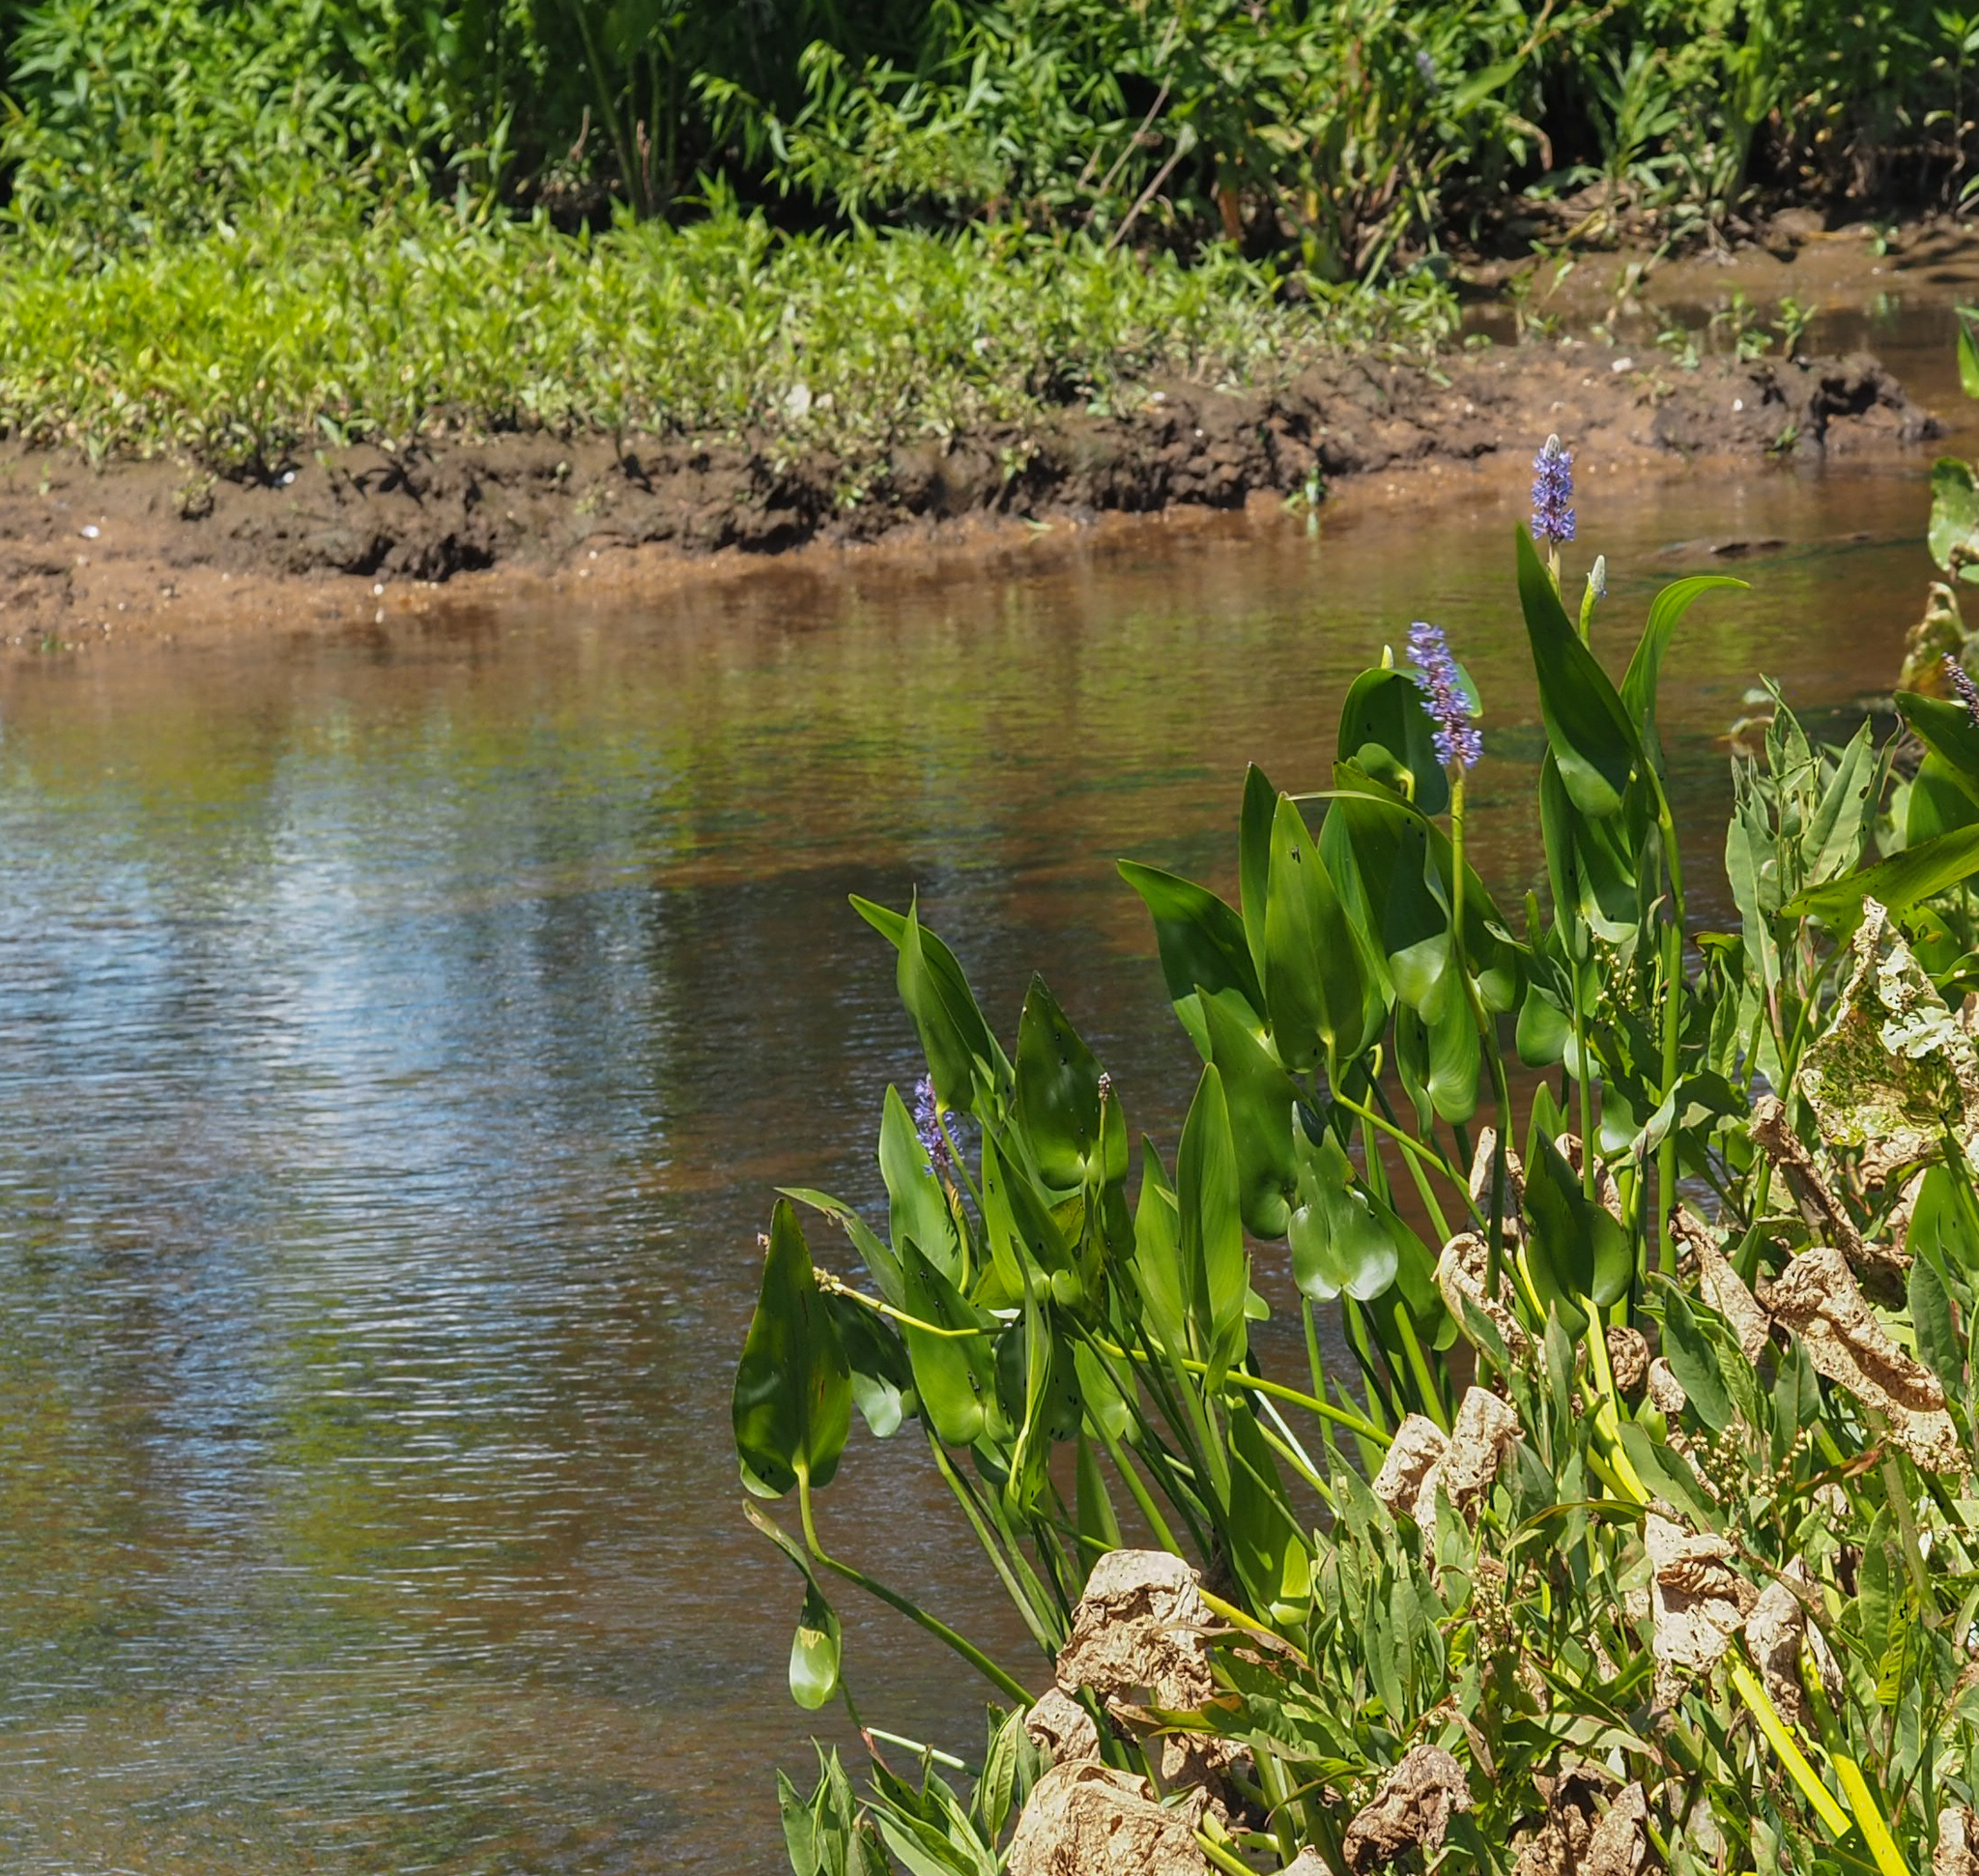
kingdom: Plantae
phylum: Tracheophyta
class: Liliopsida
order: Commelinales
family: Pontederiaceae
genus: Pontederia
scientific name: Pontederia cordata
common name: Pickerelweed
